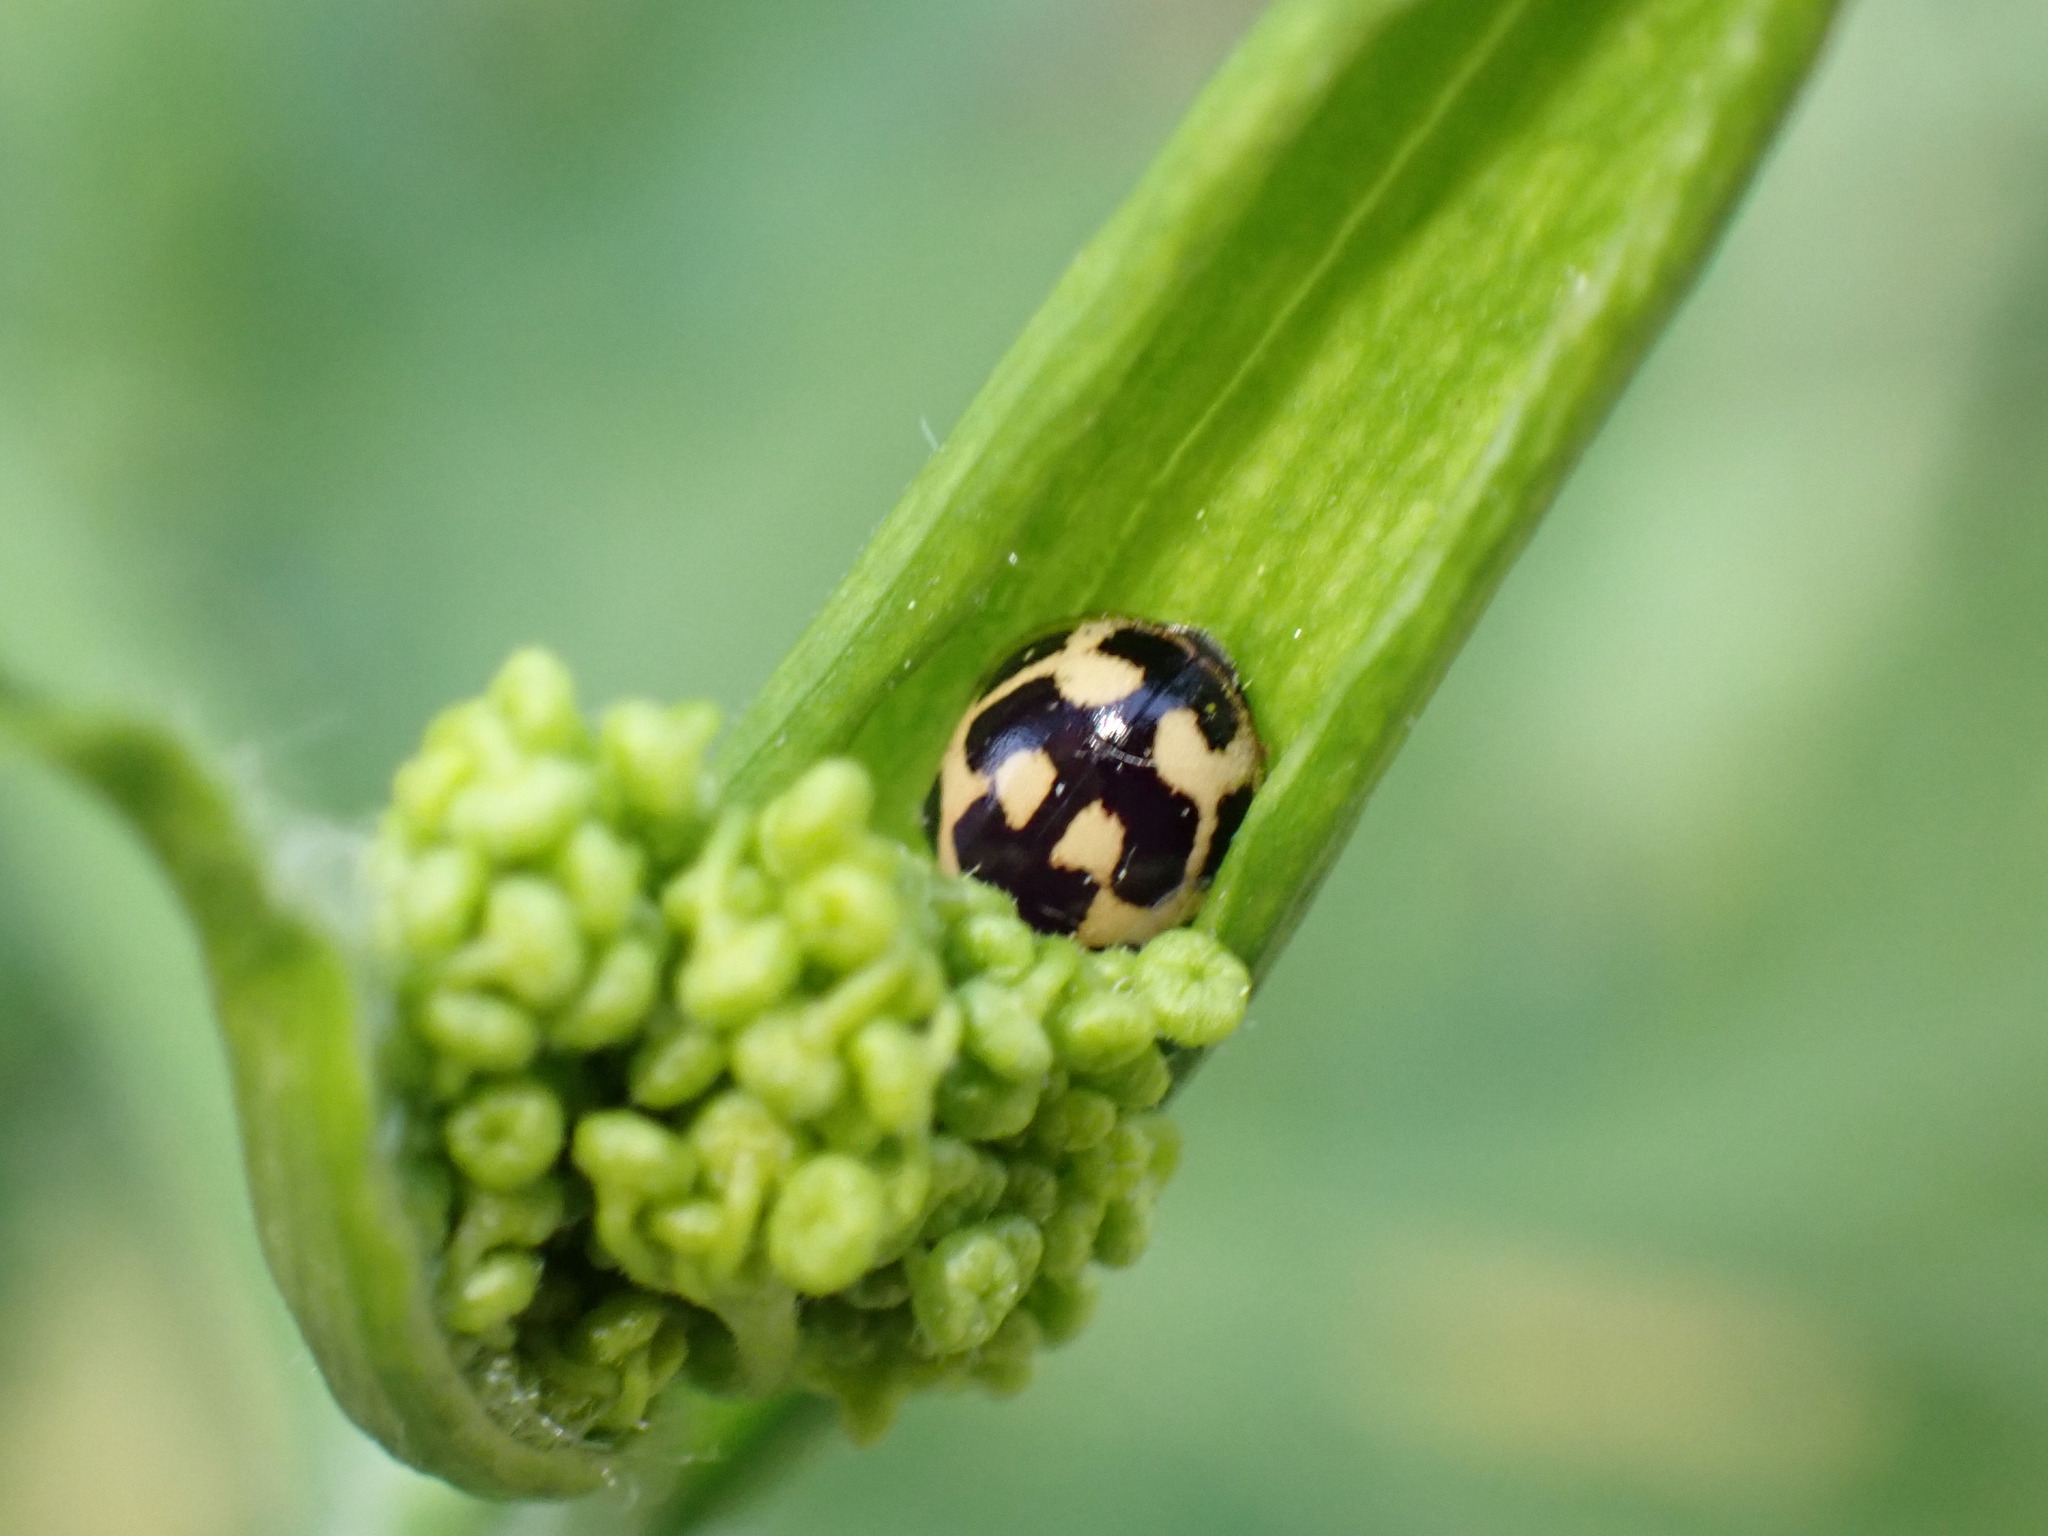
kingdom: Animalia
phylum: Arthropoda
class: Insecta
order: Coleoptera
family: Coccinellidae
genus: Propylaea
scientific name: Propylaea quatuordecimpunctata
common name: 14-spotted ladybird beetle
